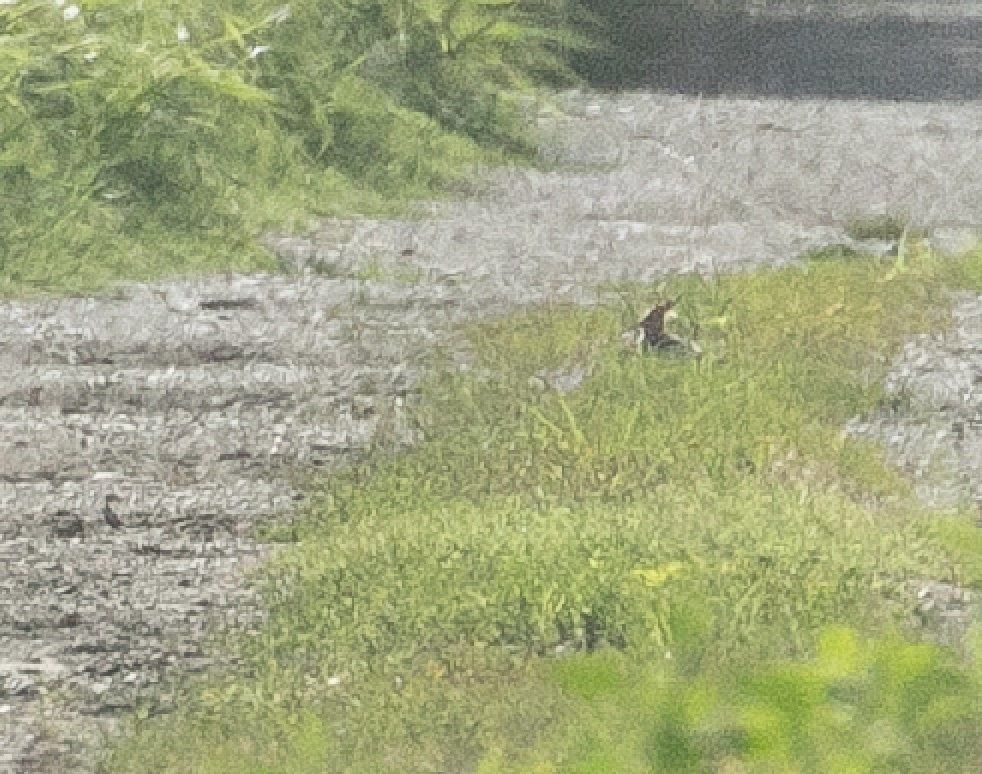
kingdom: Animalia
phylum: Chordata
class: Aves
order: Bucerotiformes
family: Upupidae
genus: Upupa
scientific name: Upupa epops
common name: Eurasian hoopoe
